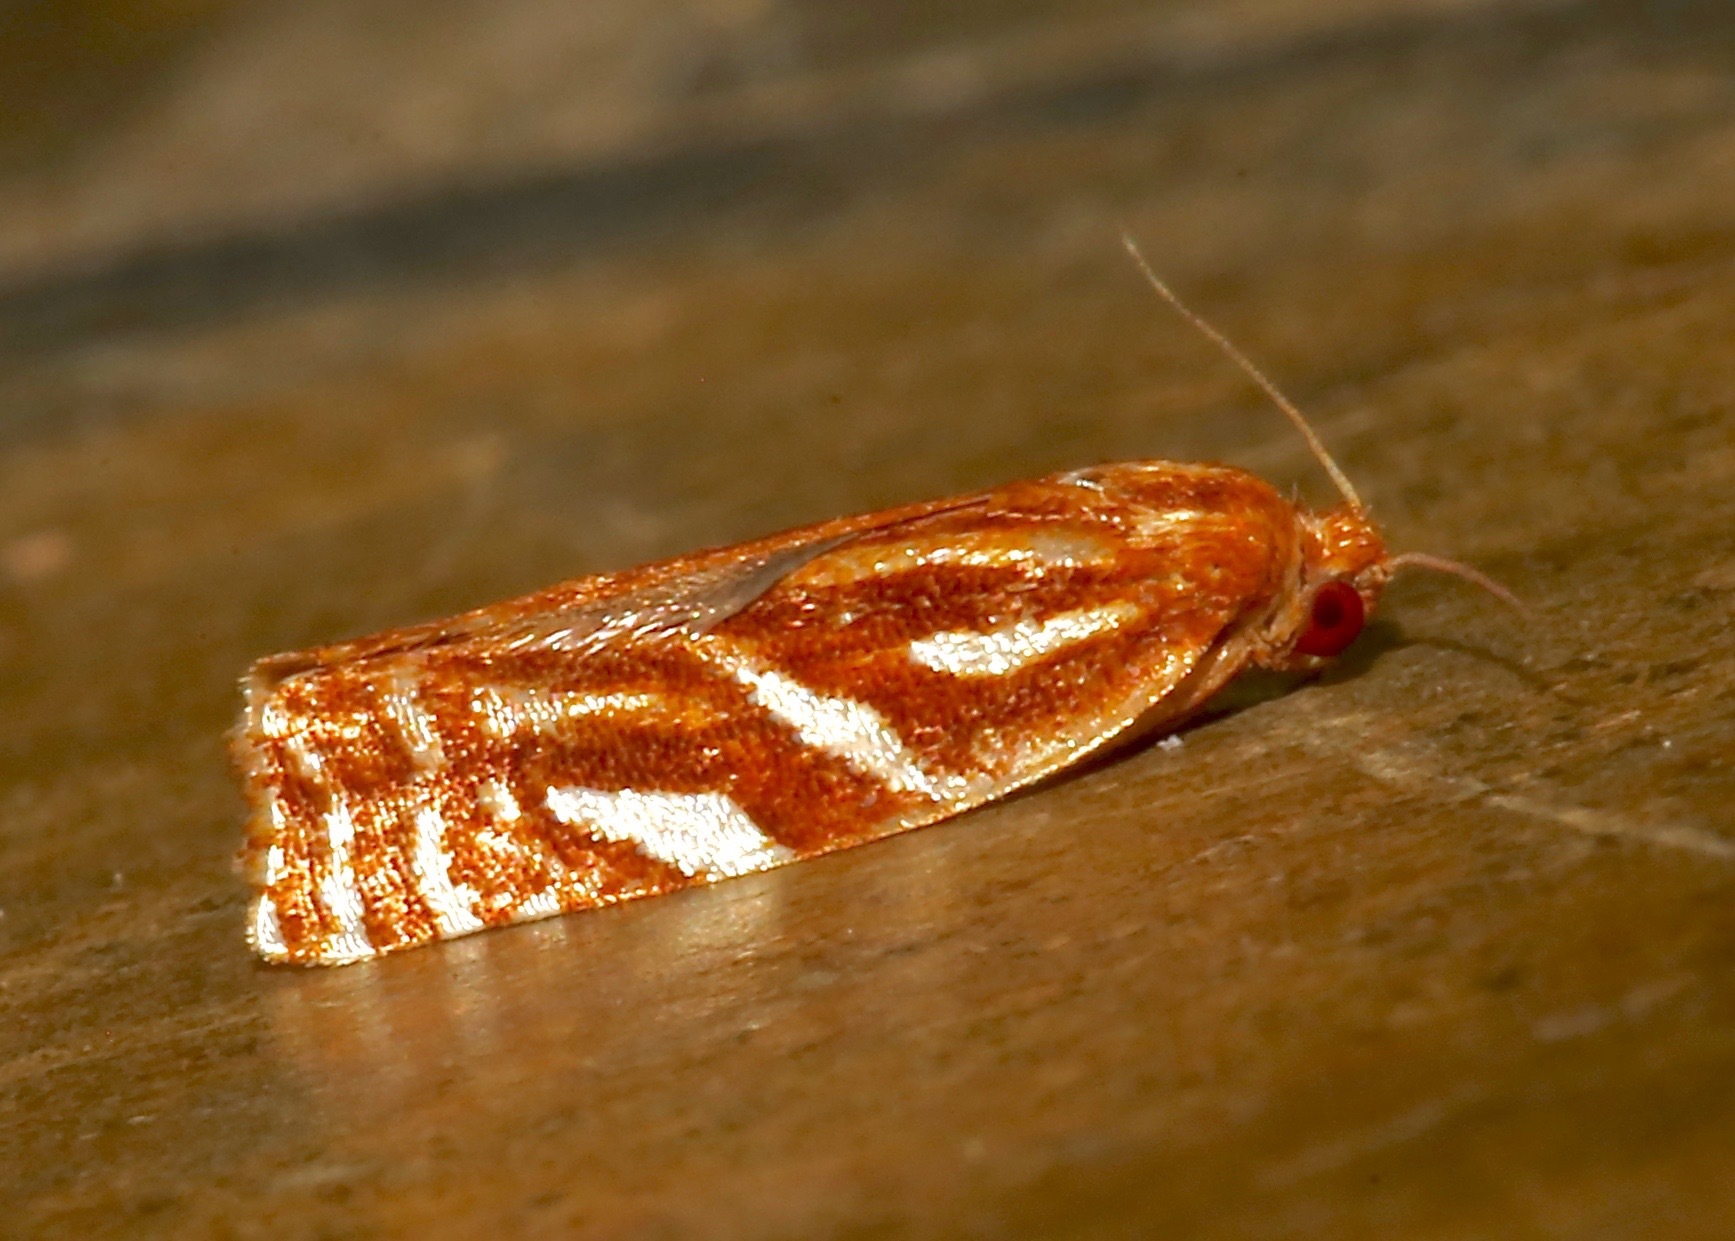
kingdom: Animalia
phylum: Arthropoda
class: Insecta
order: Lepidoptera
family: Tortricidae
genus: Choristoneura
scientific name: Choristoneura argentifasciata
